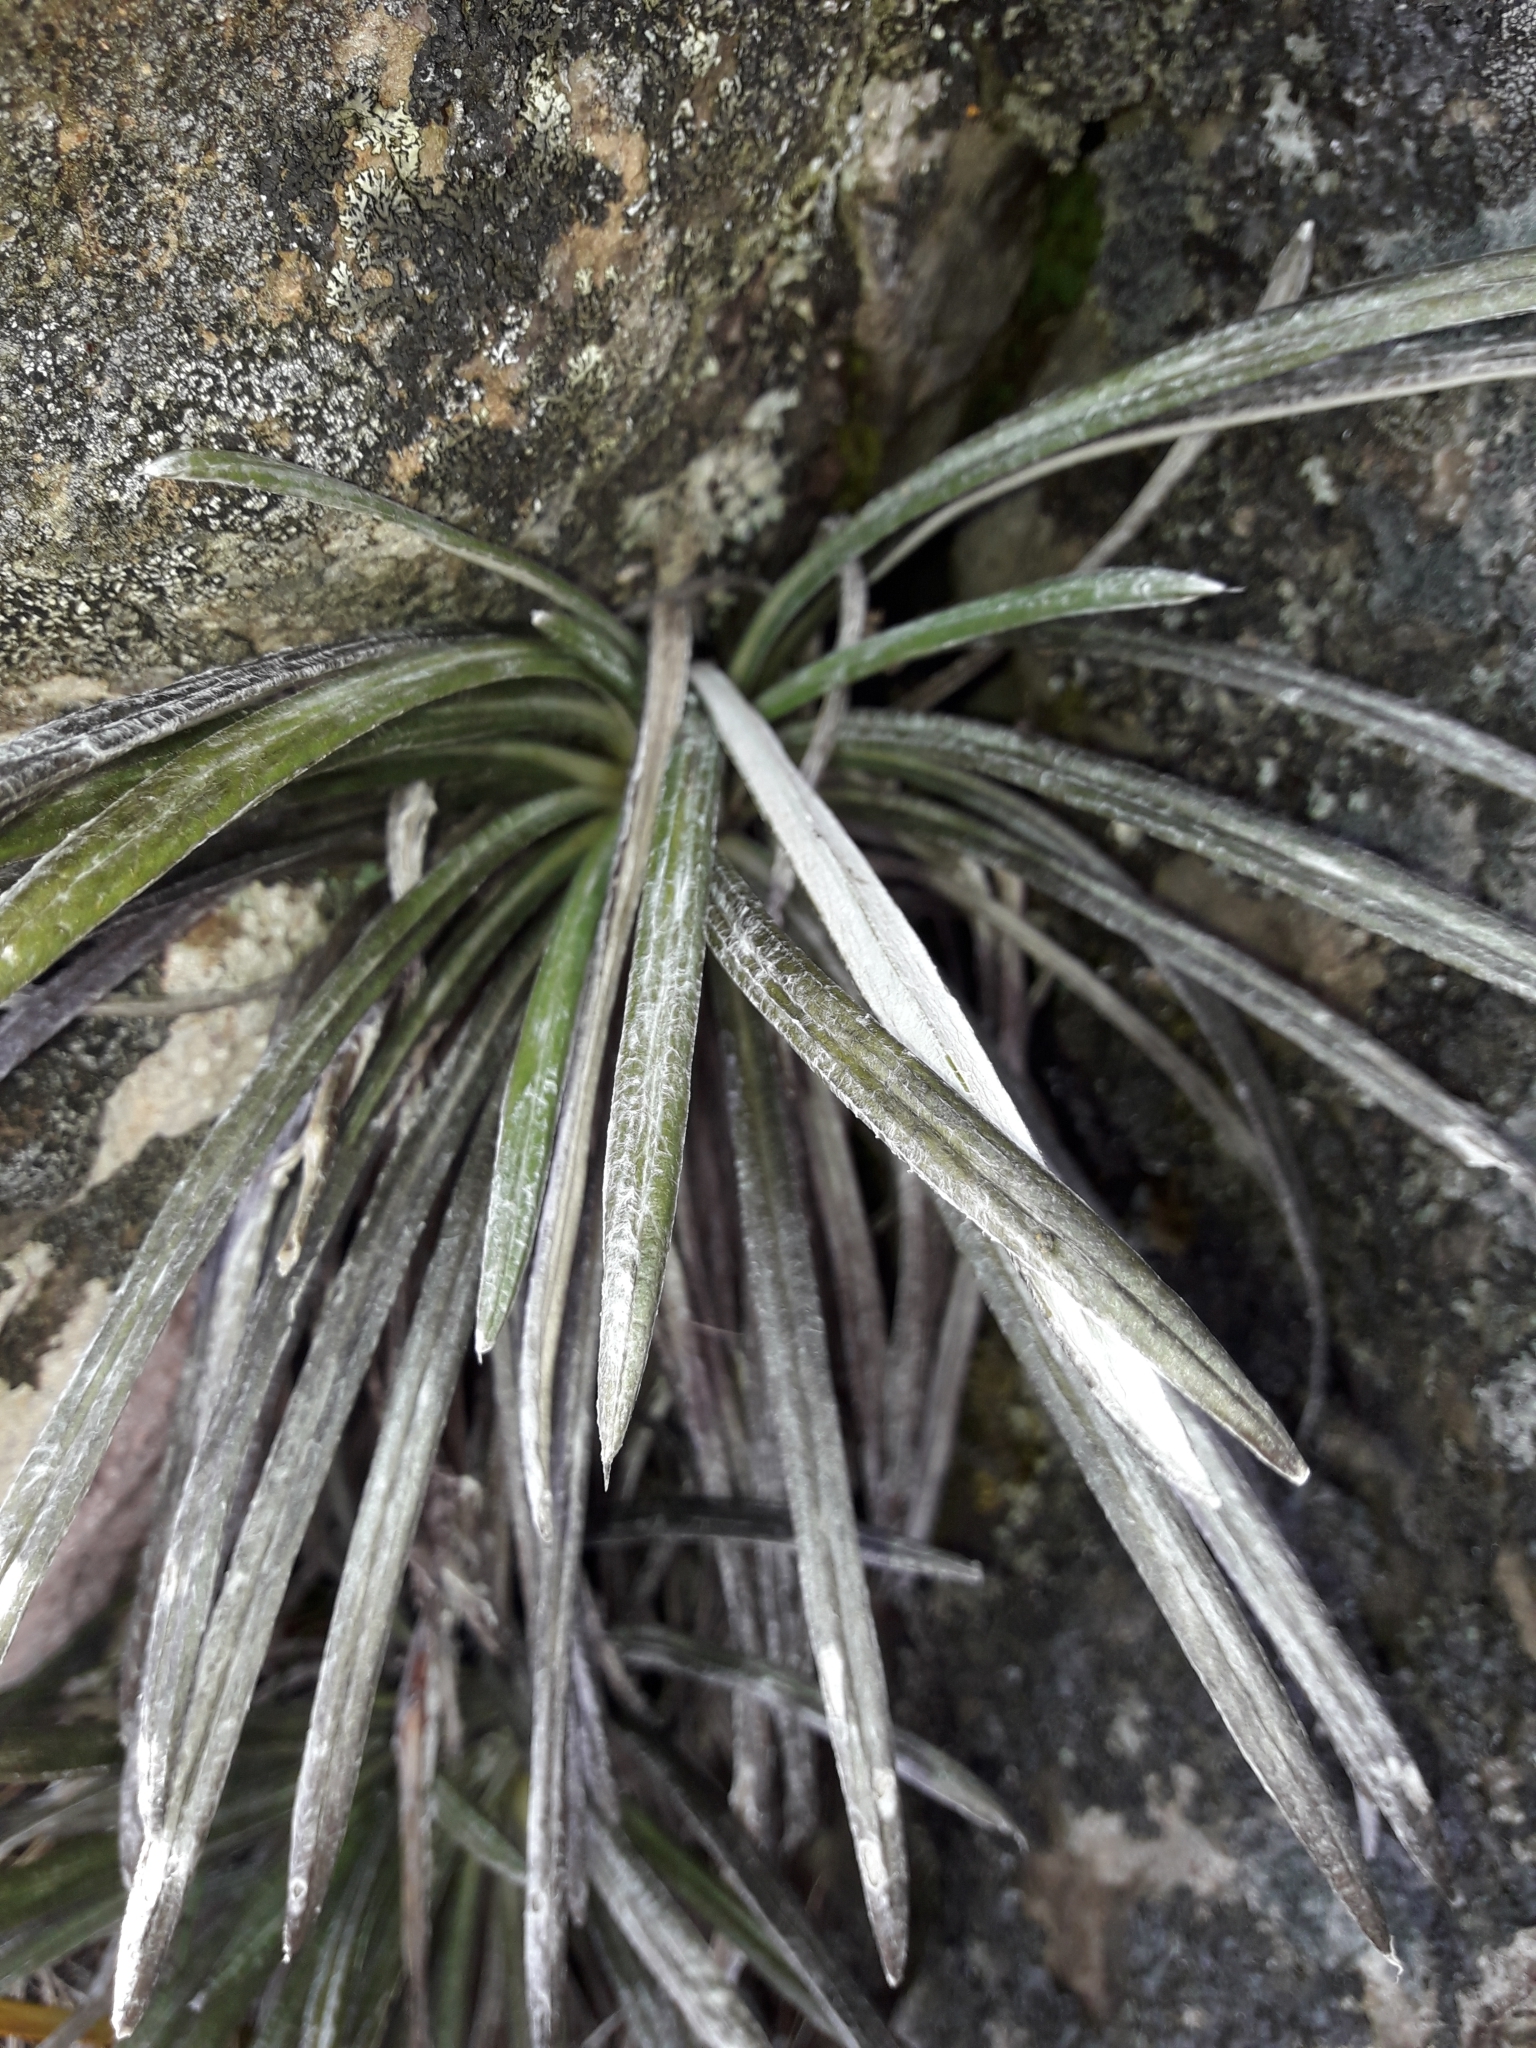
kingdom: Plantae
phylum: Tracheophyta
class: Magnoliopsida
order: Asterales
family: Asteraceae
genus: Celmisia
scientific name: Celmisia insignis
